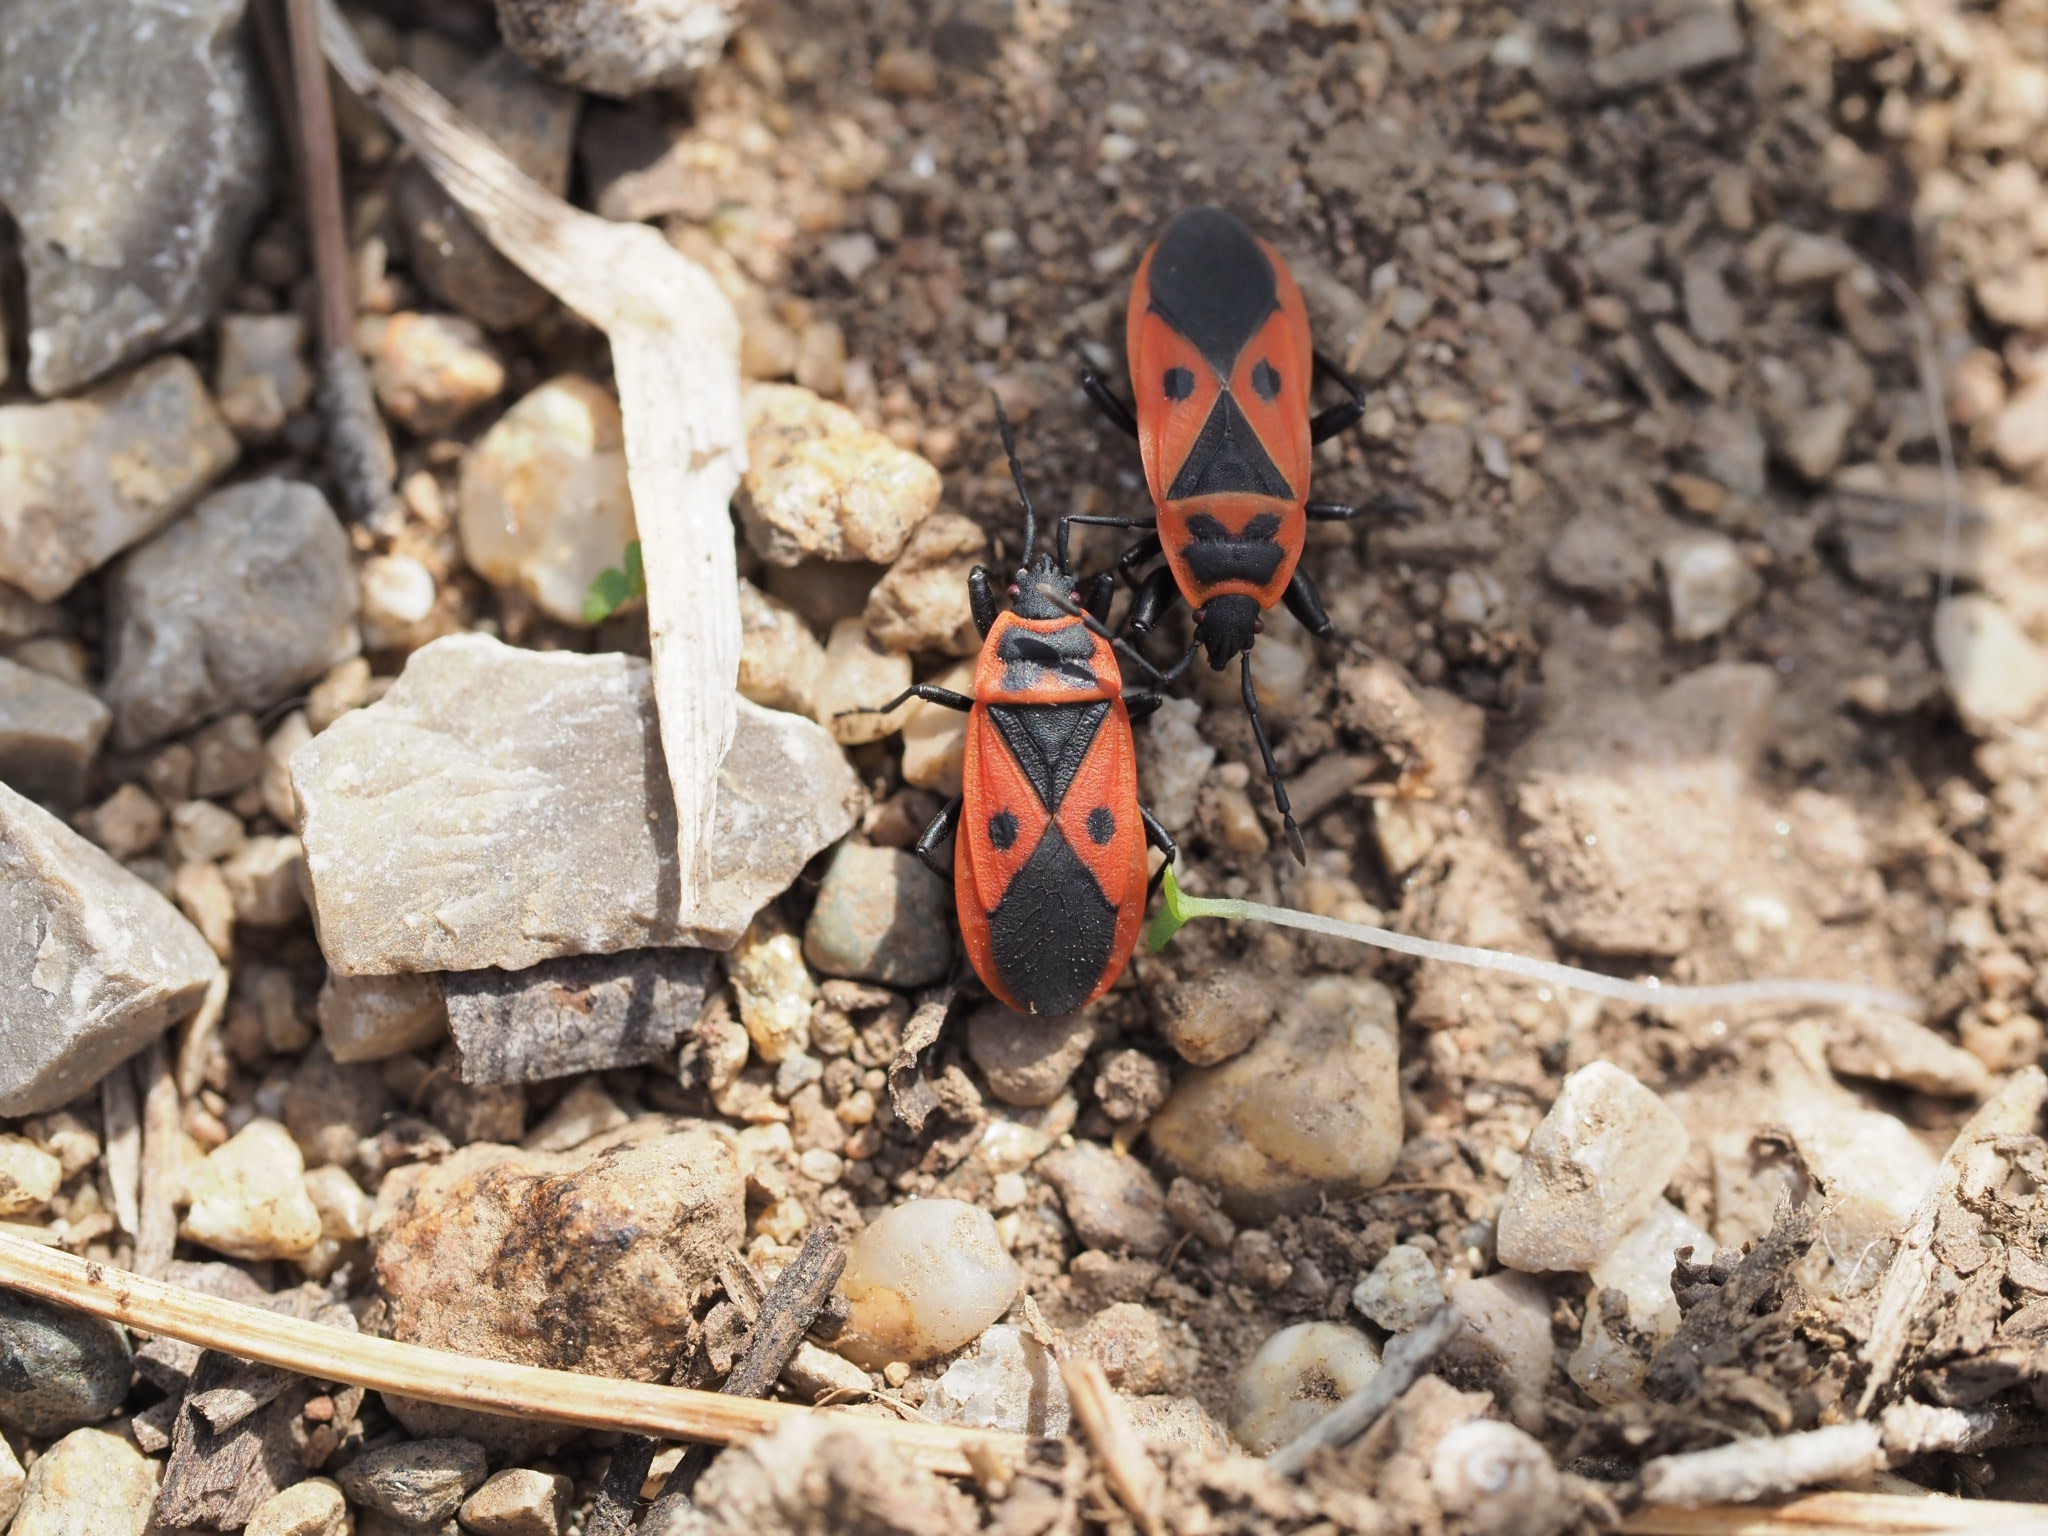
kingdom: Animalia
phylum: Arthropoda
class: Insecta
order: Hemiptera
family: Pyrrhocoridae
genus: Scantius
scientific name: Scantius aegyptius
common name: Red bug
